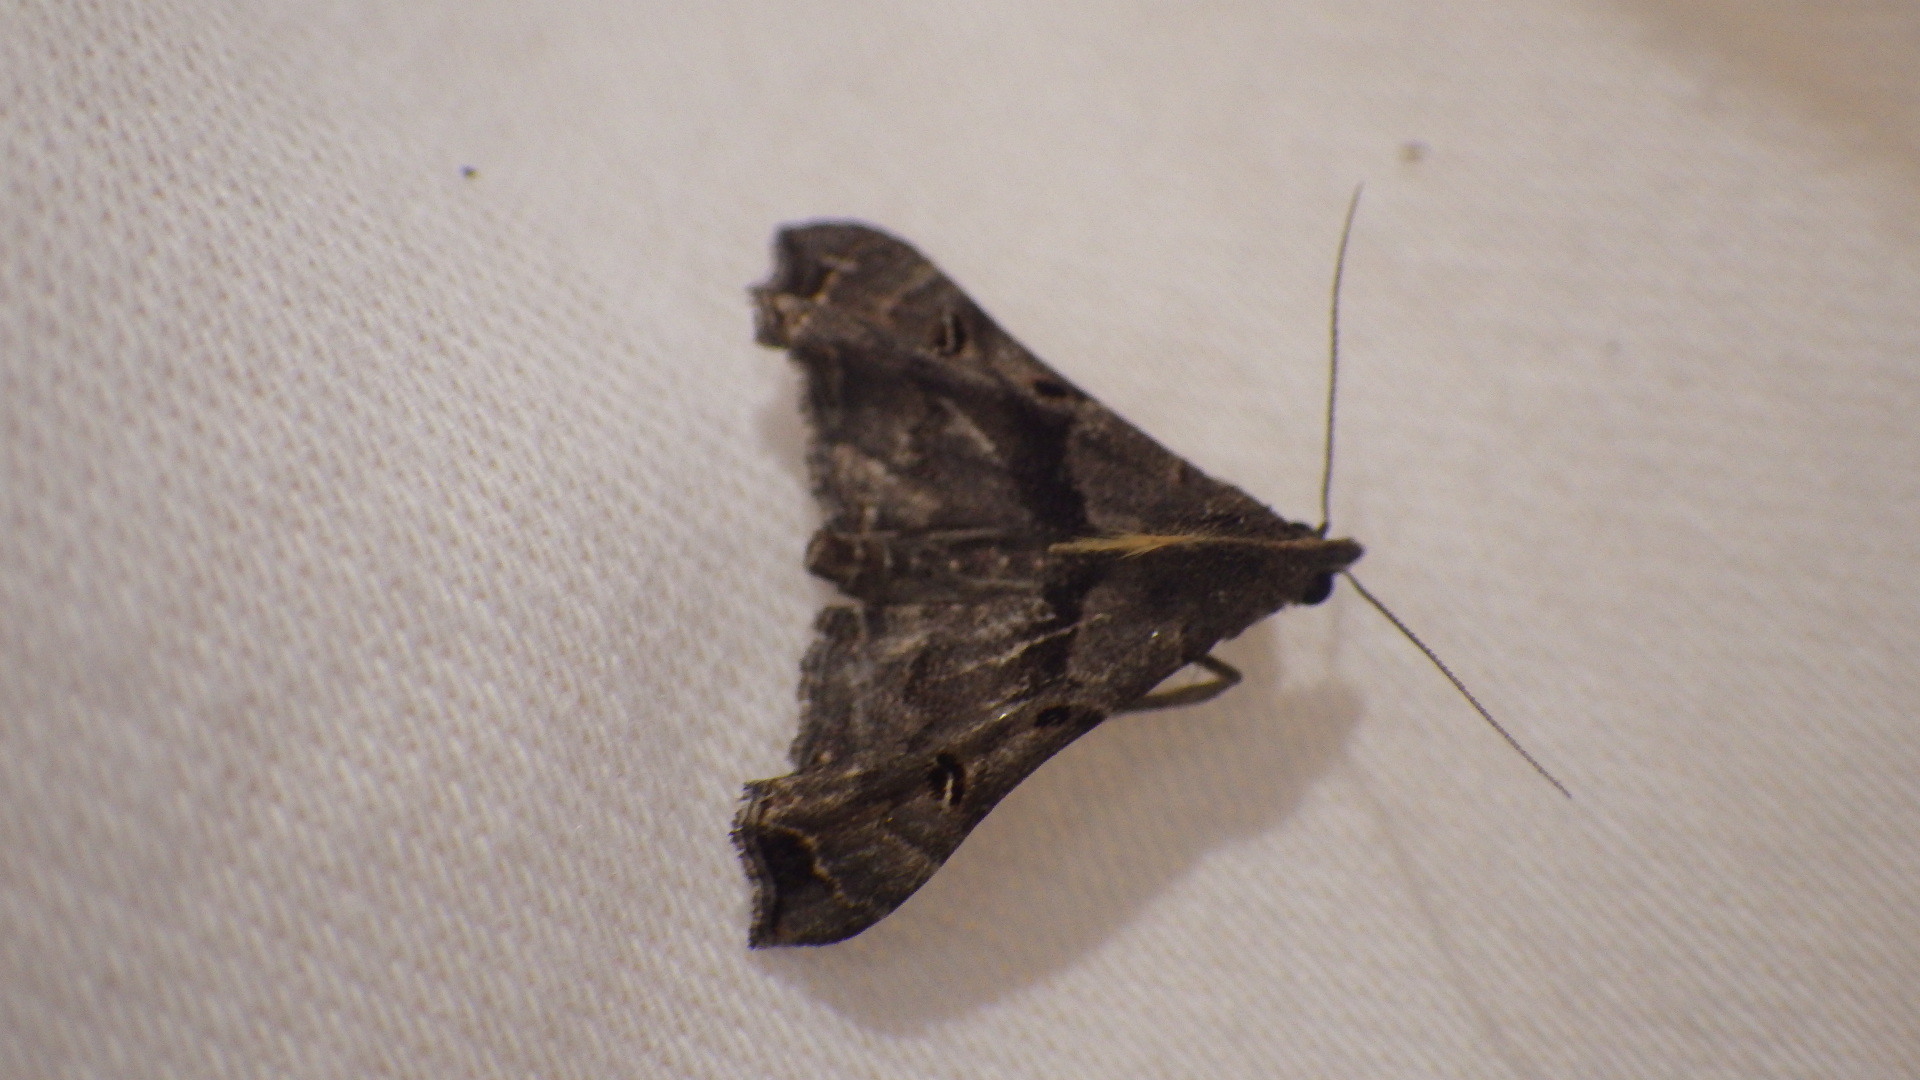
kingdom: Animalia
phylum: Arthropoda
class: Insecta
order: Lepidoptera
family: Erebidae
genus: Palthis
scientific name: Palthis asopialis
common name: Faint-spotted palthis moth
